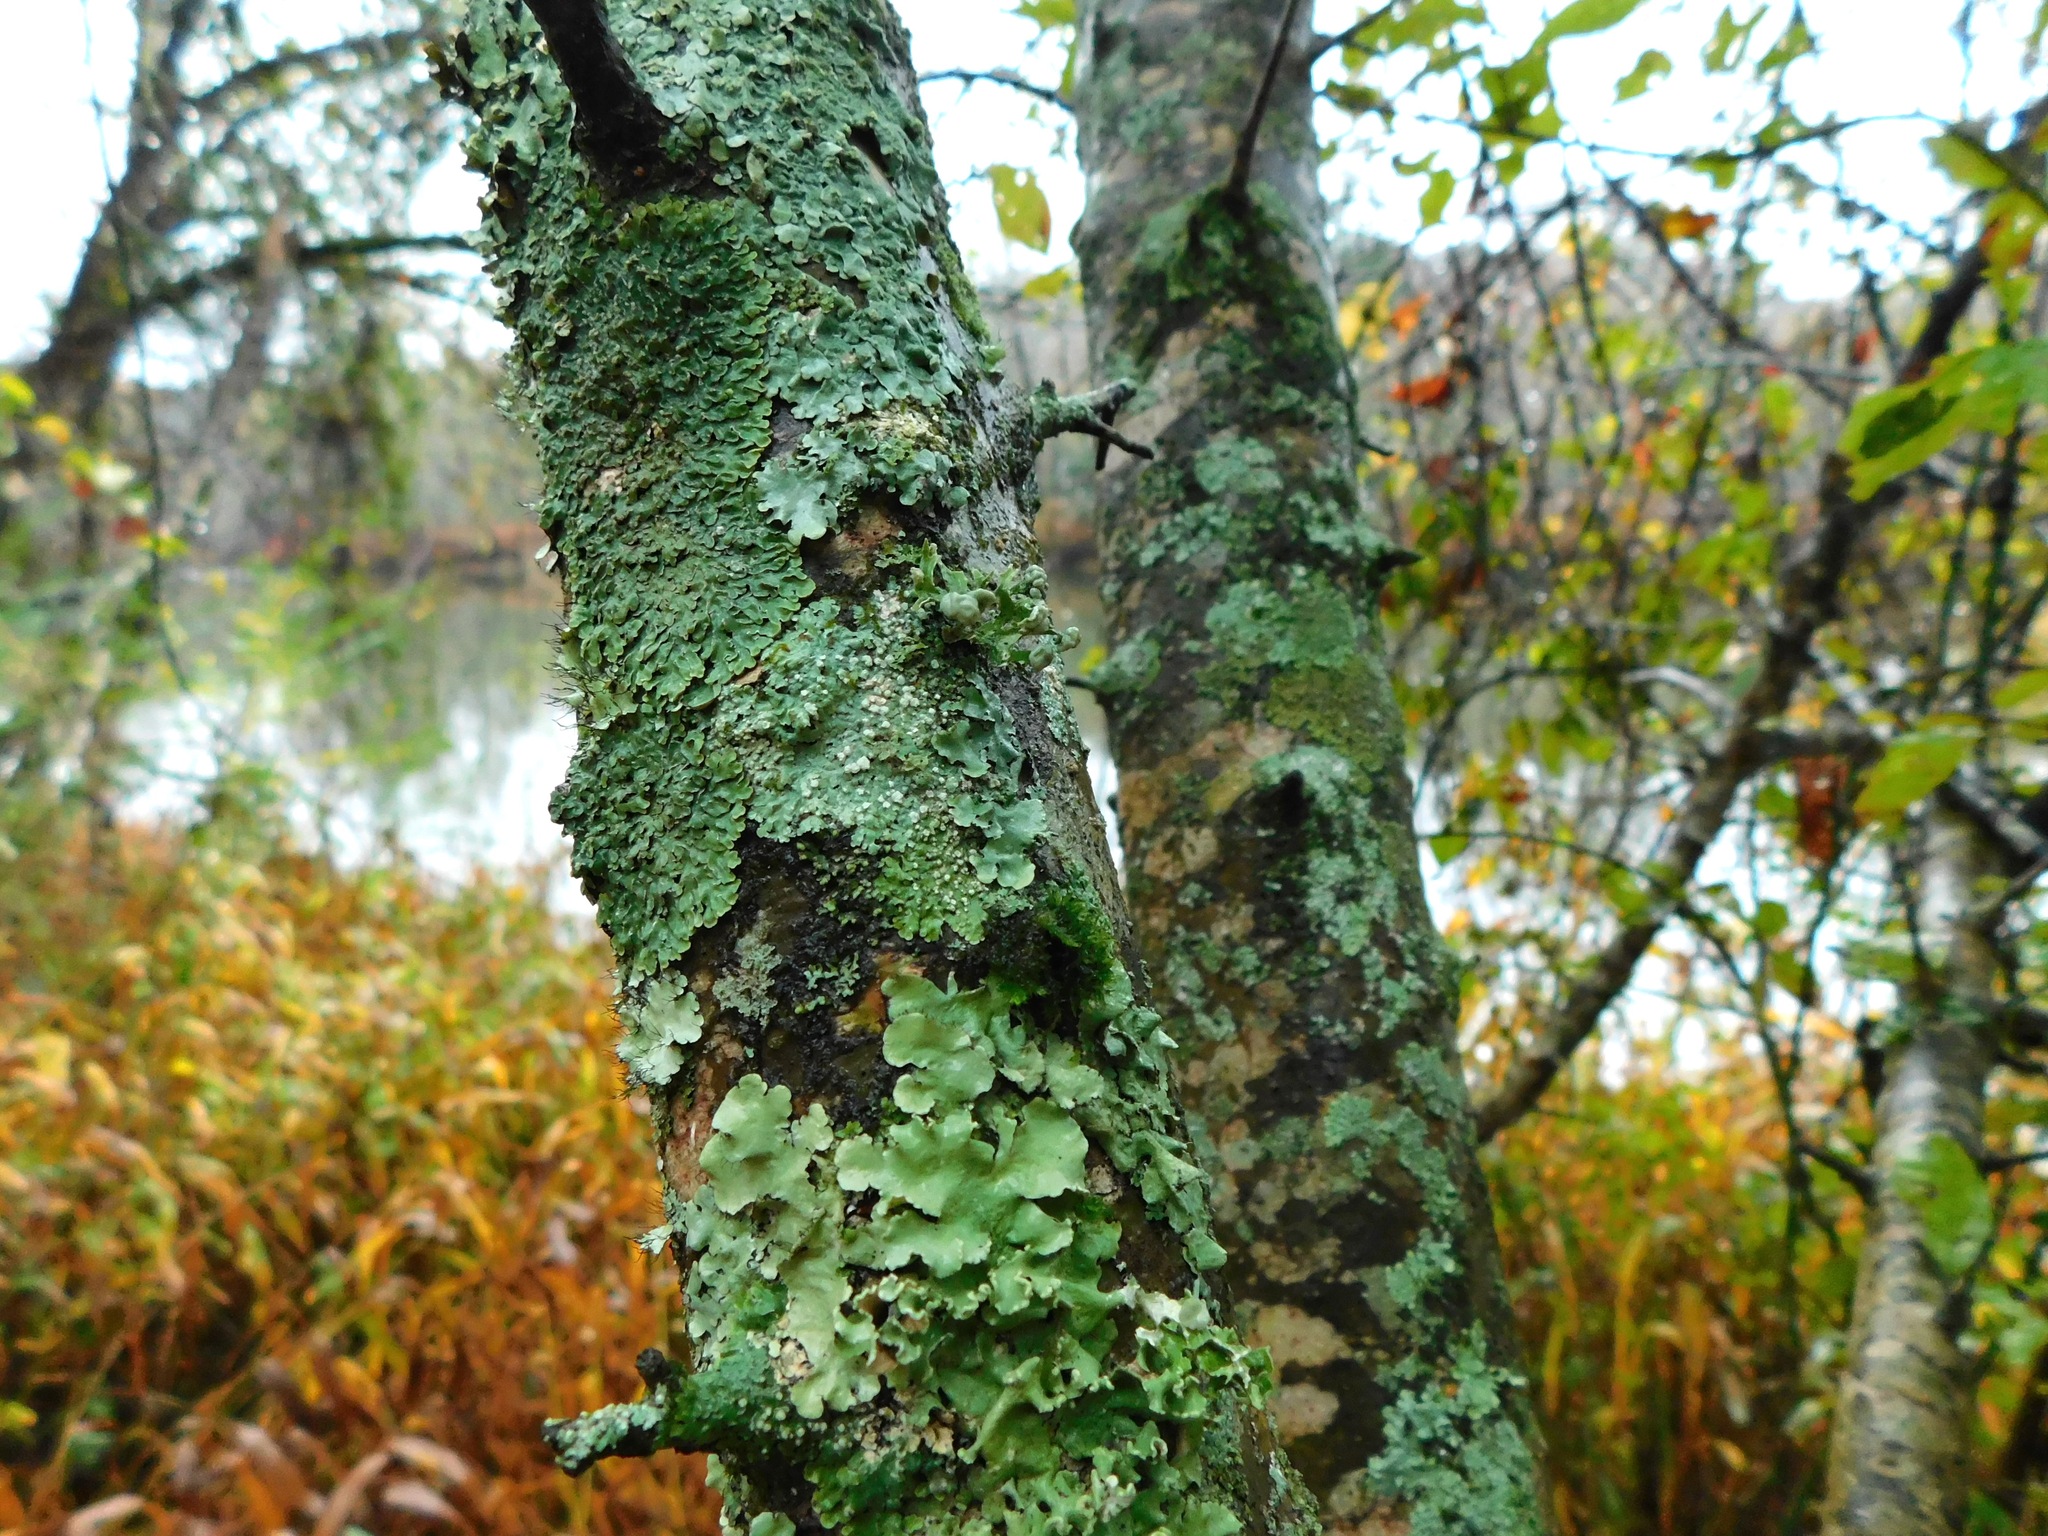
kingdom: Fungi
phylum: Ascomycota
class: Lecanoromycetes
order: Lecanorales
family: Ramalinaceae
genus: Ramalina
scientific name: Ramalina americana
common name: Sinewed bush lichen
